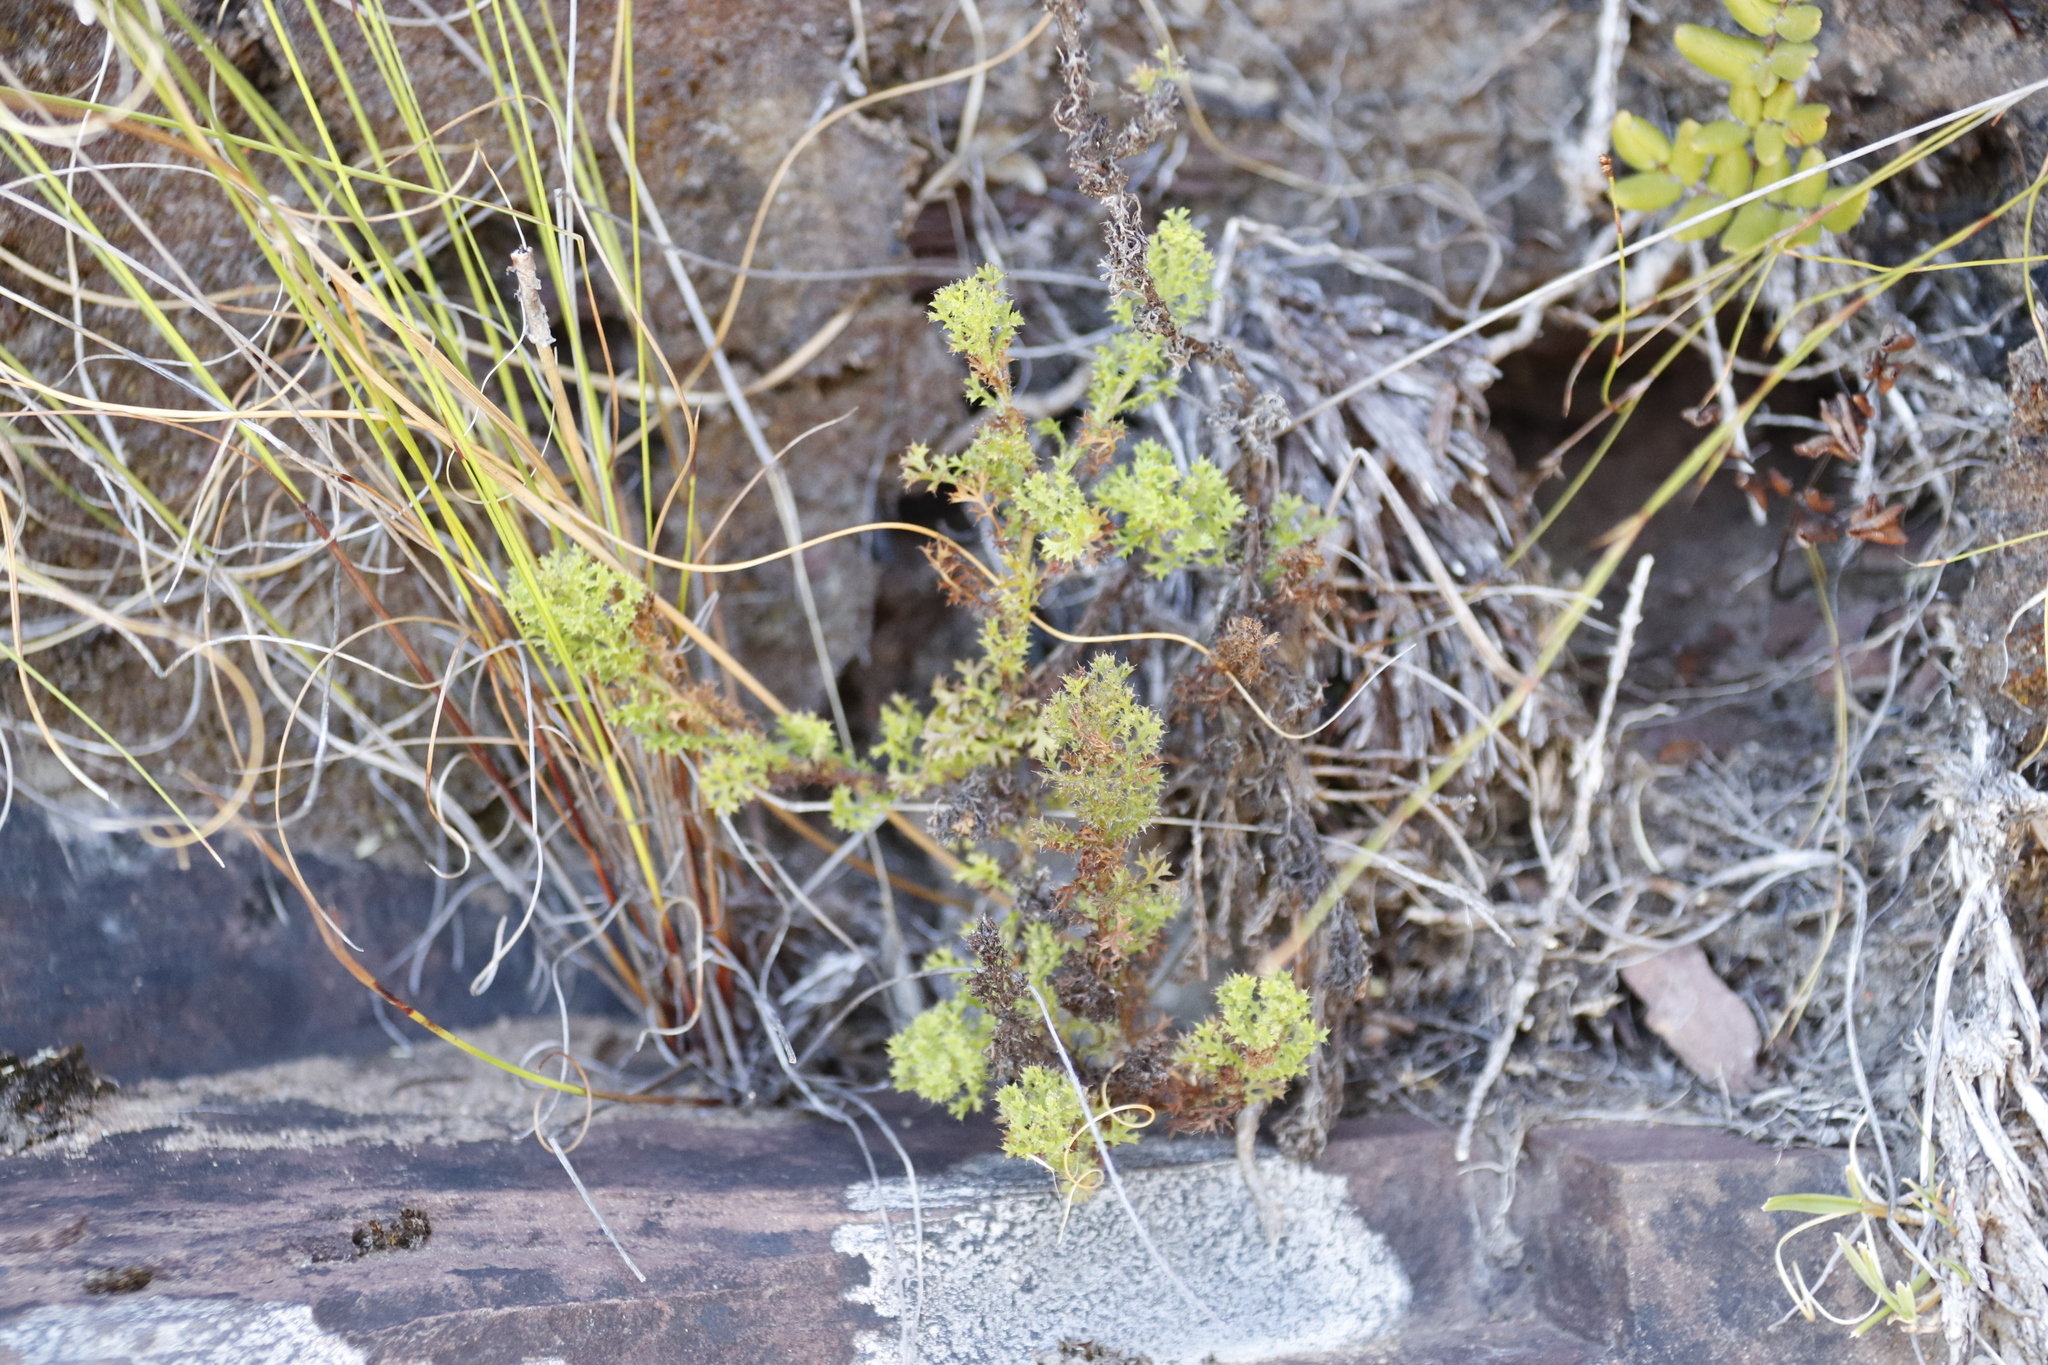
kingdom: Plantae
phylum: Tracheophyta
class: Magnoliopsida
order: Asterales
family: Asteraceae
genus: Ursinia
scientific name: Ursinia dentata
